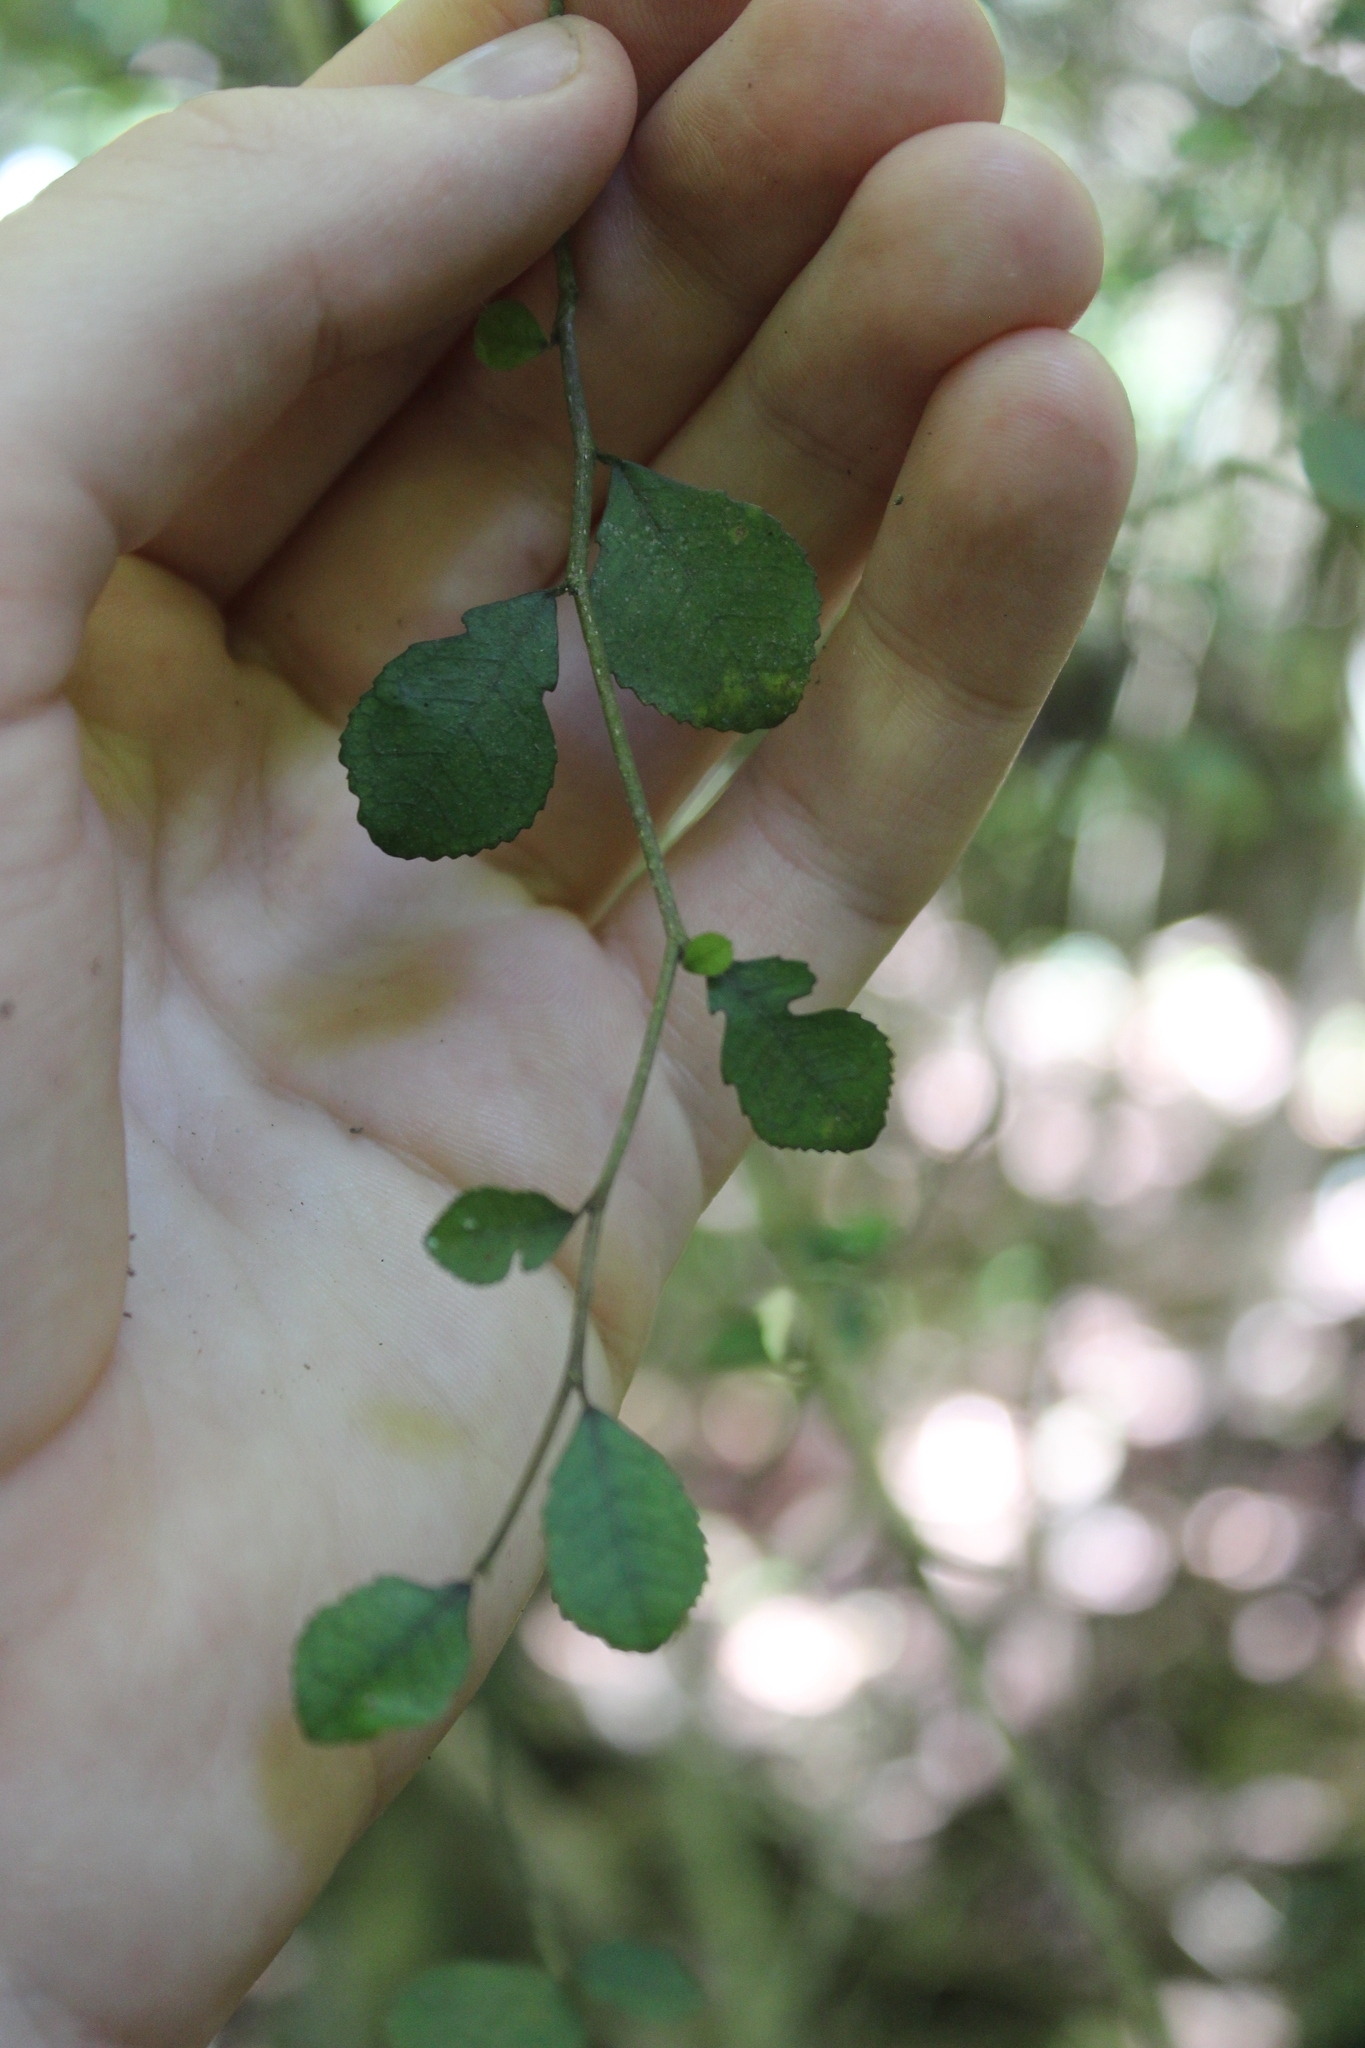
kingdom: Plantae
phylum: Tracheophyta
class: Magnoliopsida
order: Rosales
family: Moraceae
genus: Paratrophis
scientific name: Paratrophis microphylla
